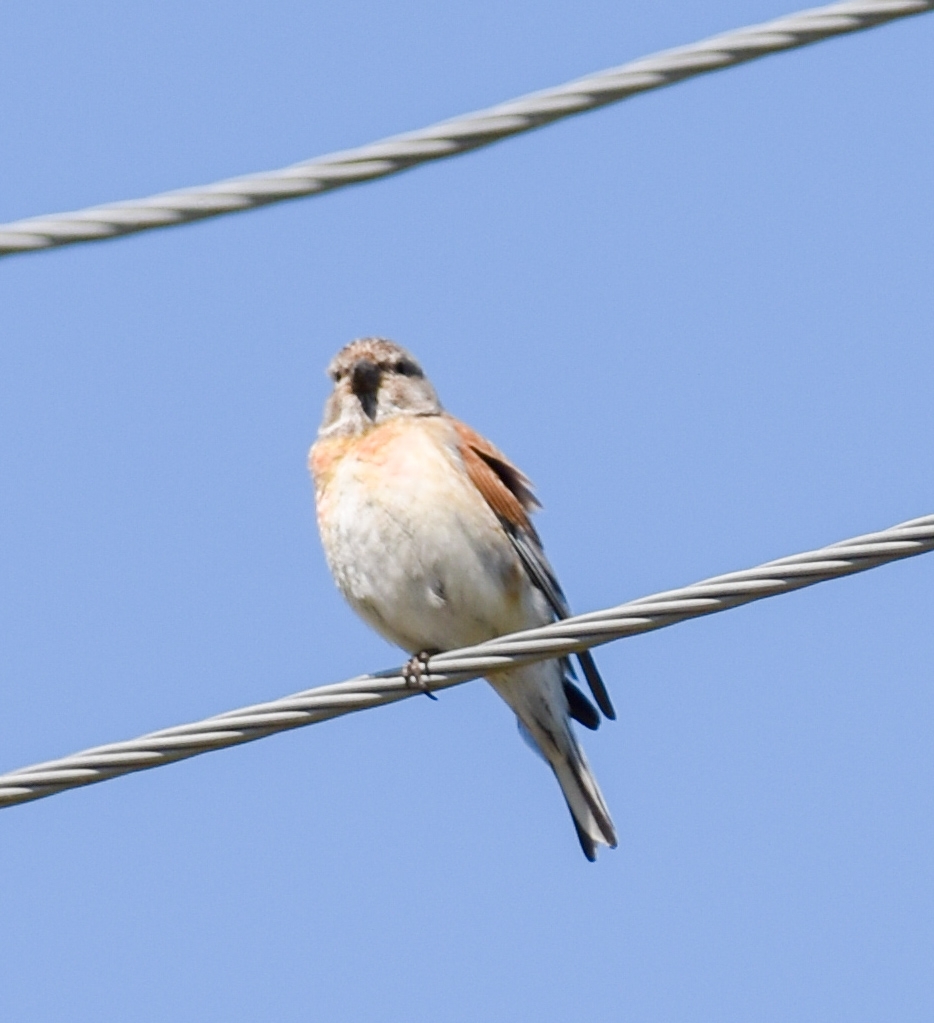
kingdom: Animalia
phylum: Chordata
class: Aves
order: Passeriformes
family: Fringillidae
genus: Linaria
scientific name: Linaria cannabina
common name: Common linnet
